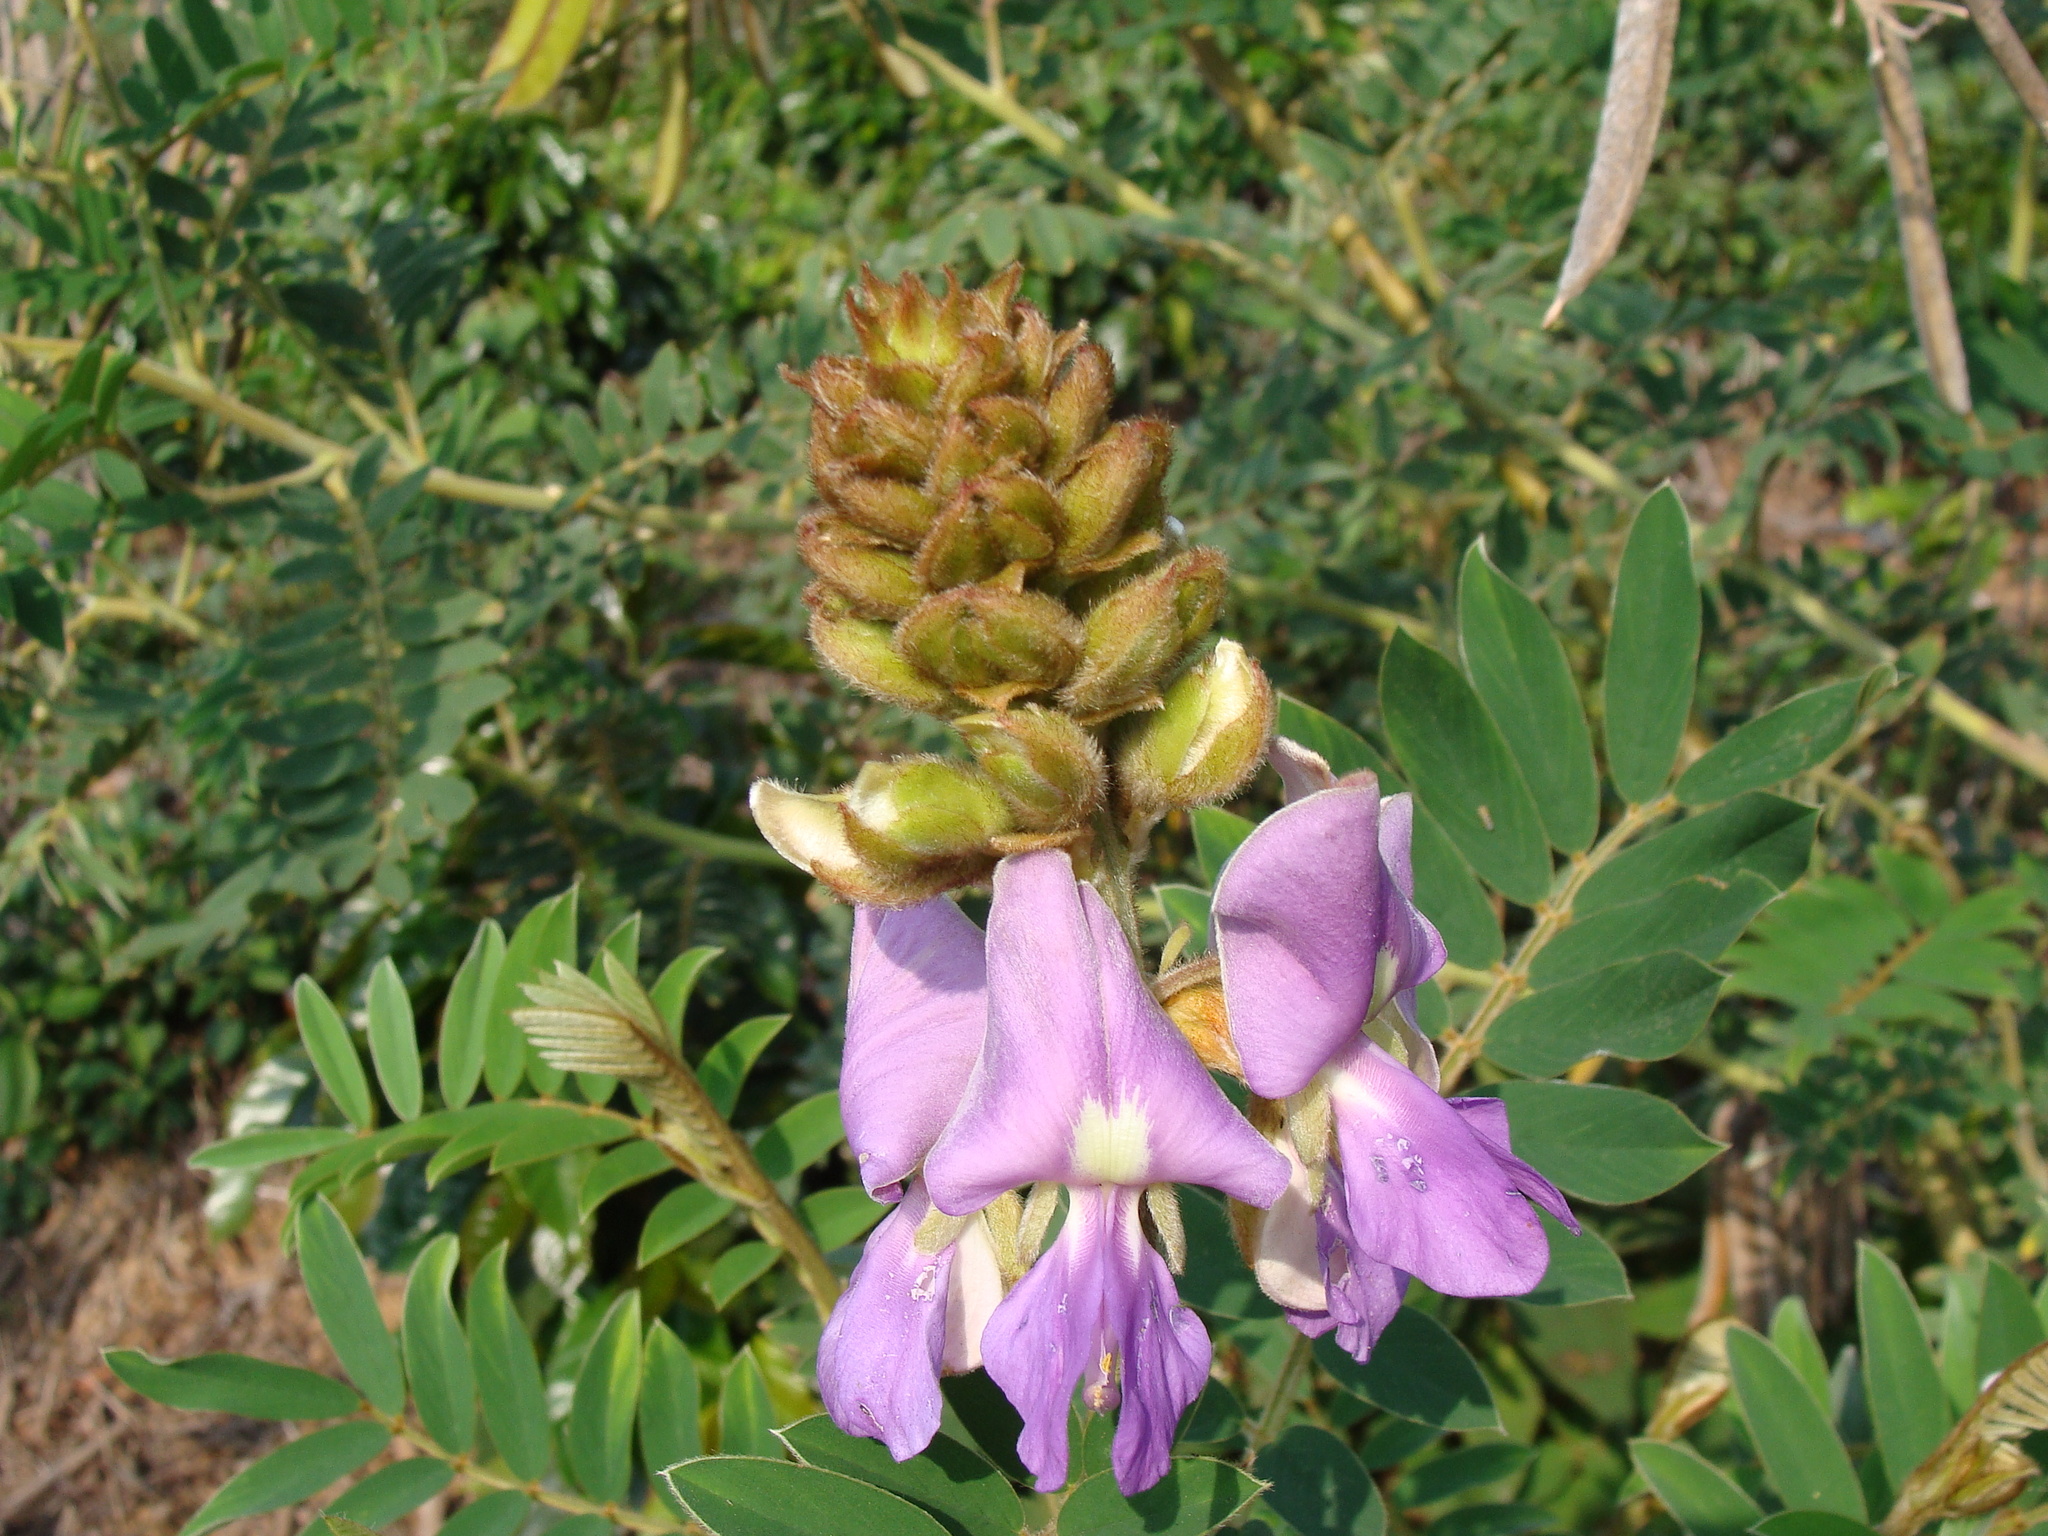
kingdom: Plantae
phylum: Tracheophyta
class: Magnoliopsida
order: Fabales
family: Fabaceae
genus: Tephrosia
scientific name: Tephrosia vogelii
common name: Vogel tephrosia
